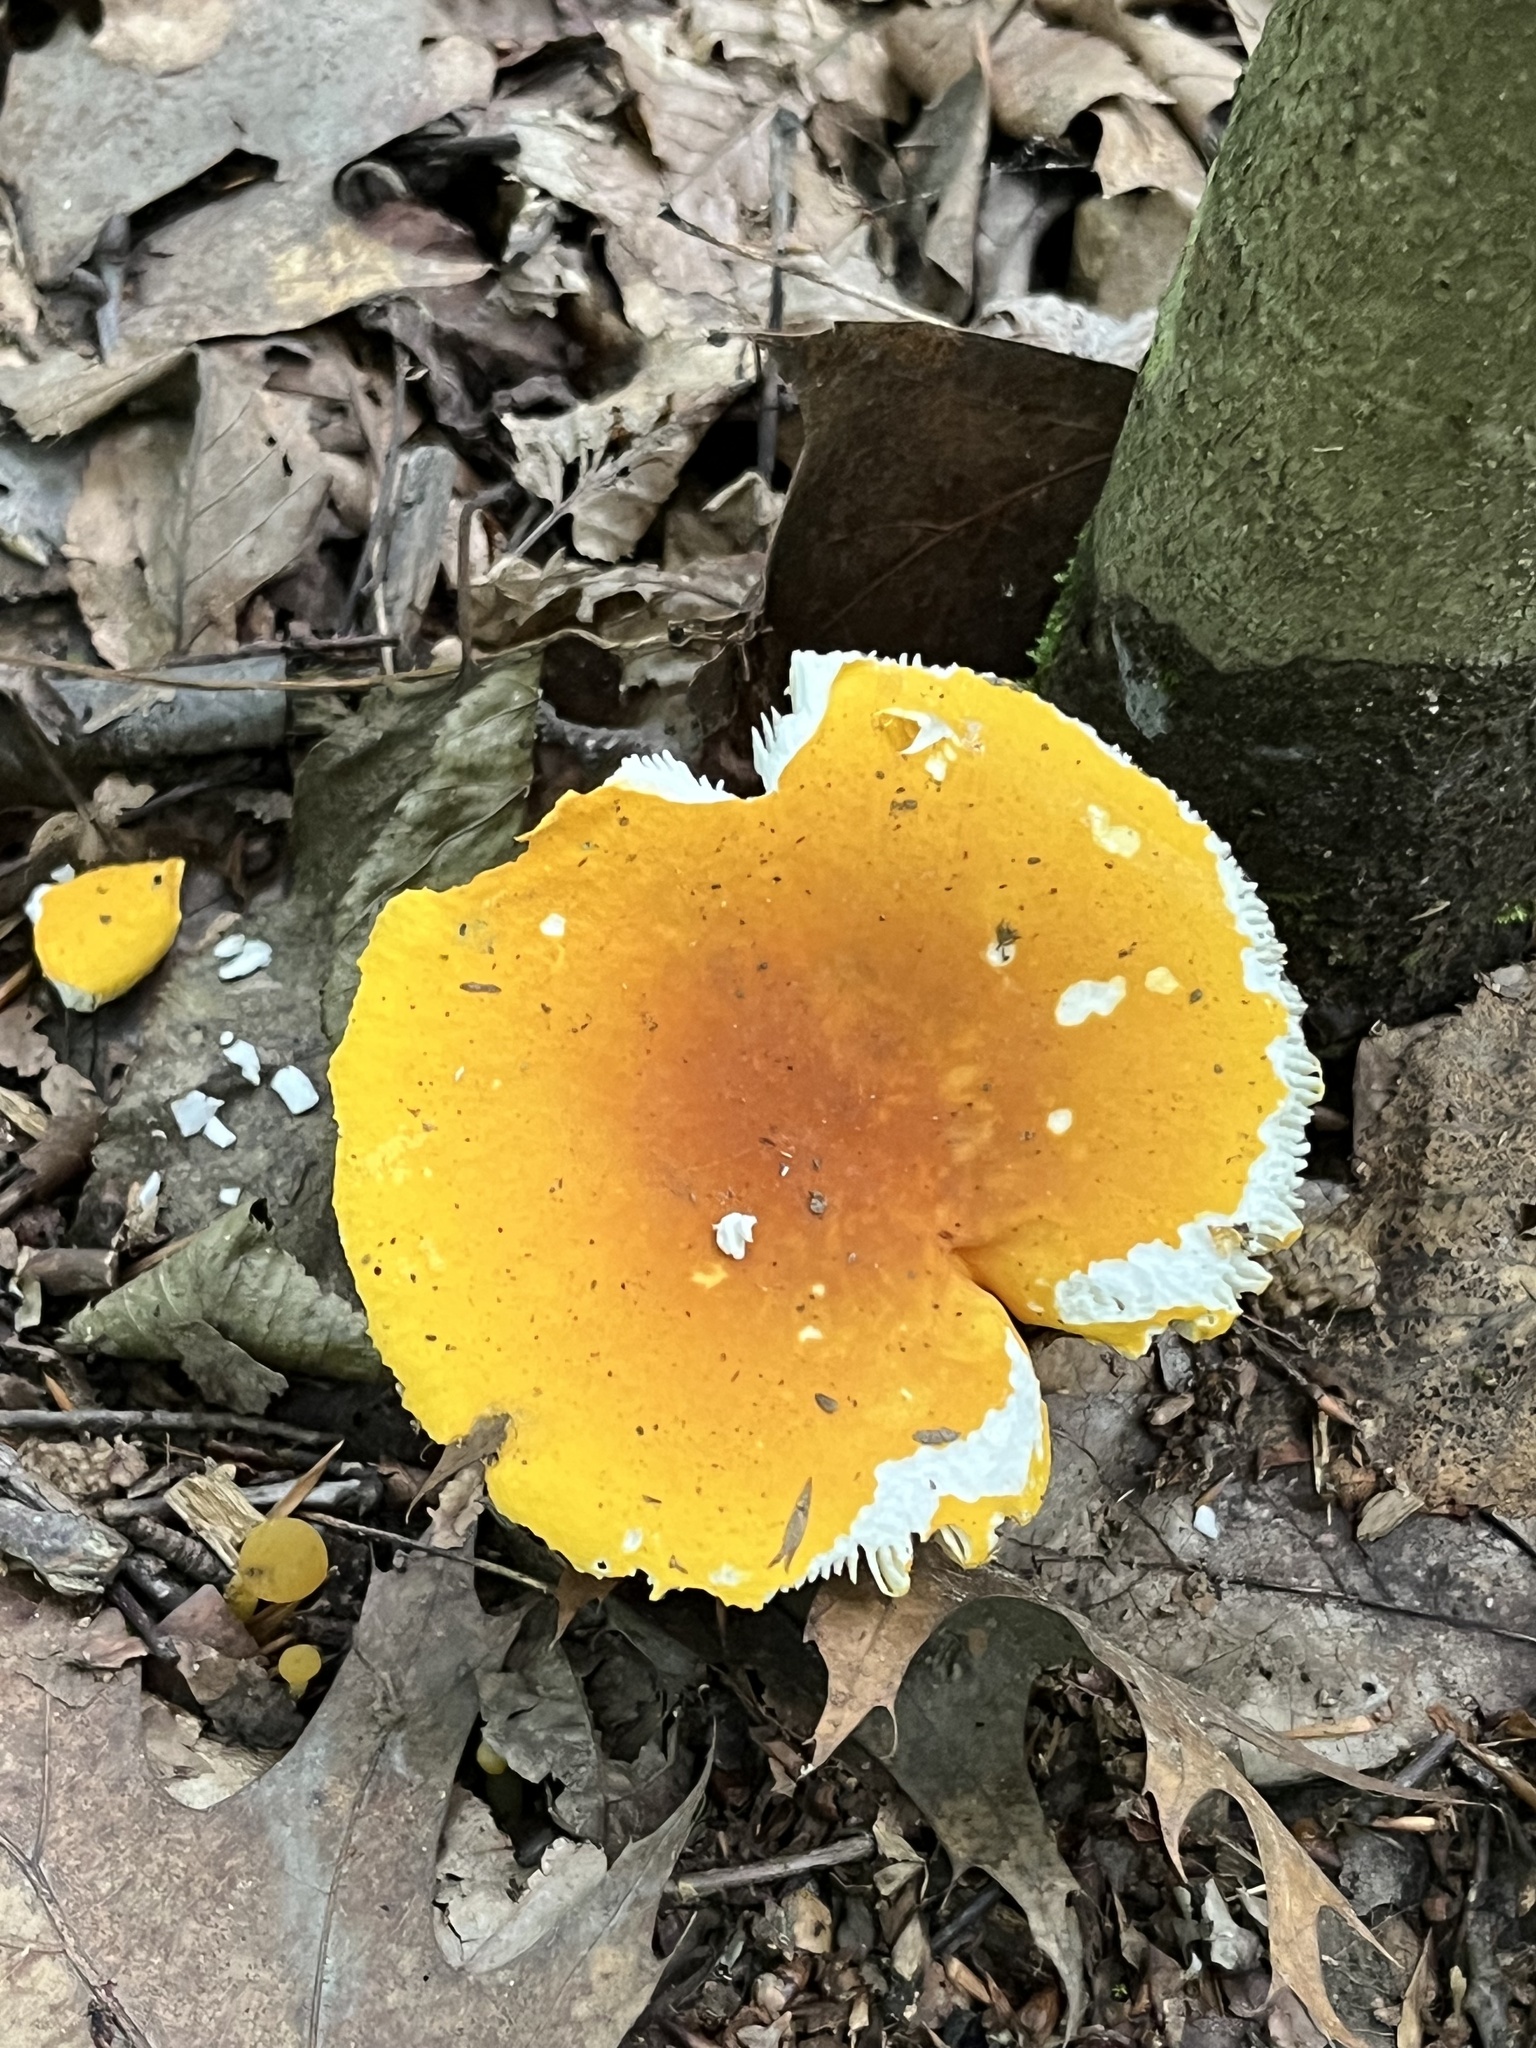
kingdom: Fungi
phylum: Basidiomycota
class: Agaricomycetes
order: Russulales
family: Russulaceae
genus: Russula
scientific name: Russula flavida
